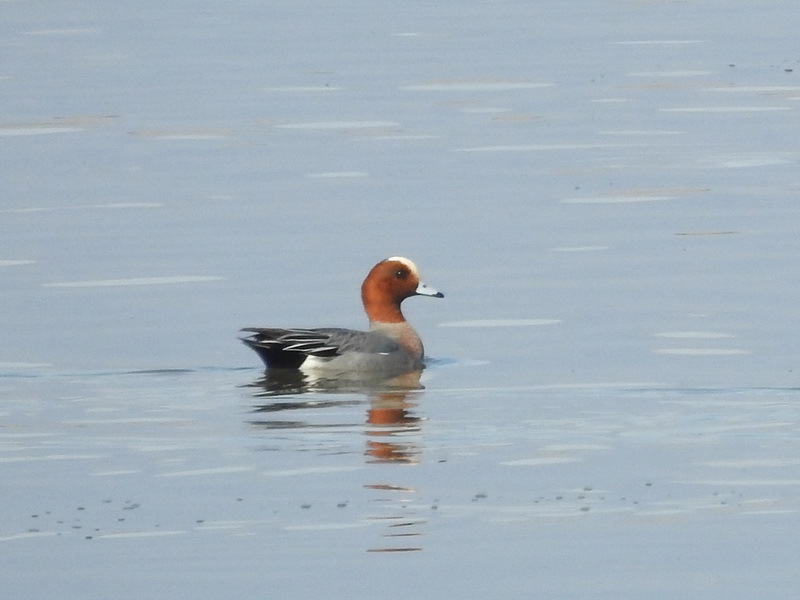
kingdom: Animalia
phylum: Chordata
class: Aves
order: Anseriformes
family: Anatidae
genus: Mareca
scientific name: Mareca penelope
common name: Eurasian wigeon
